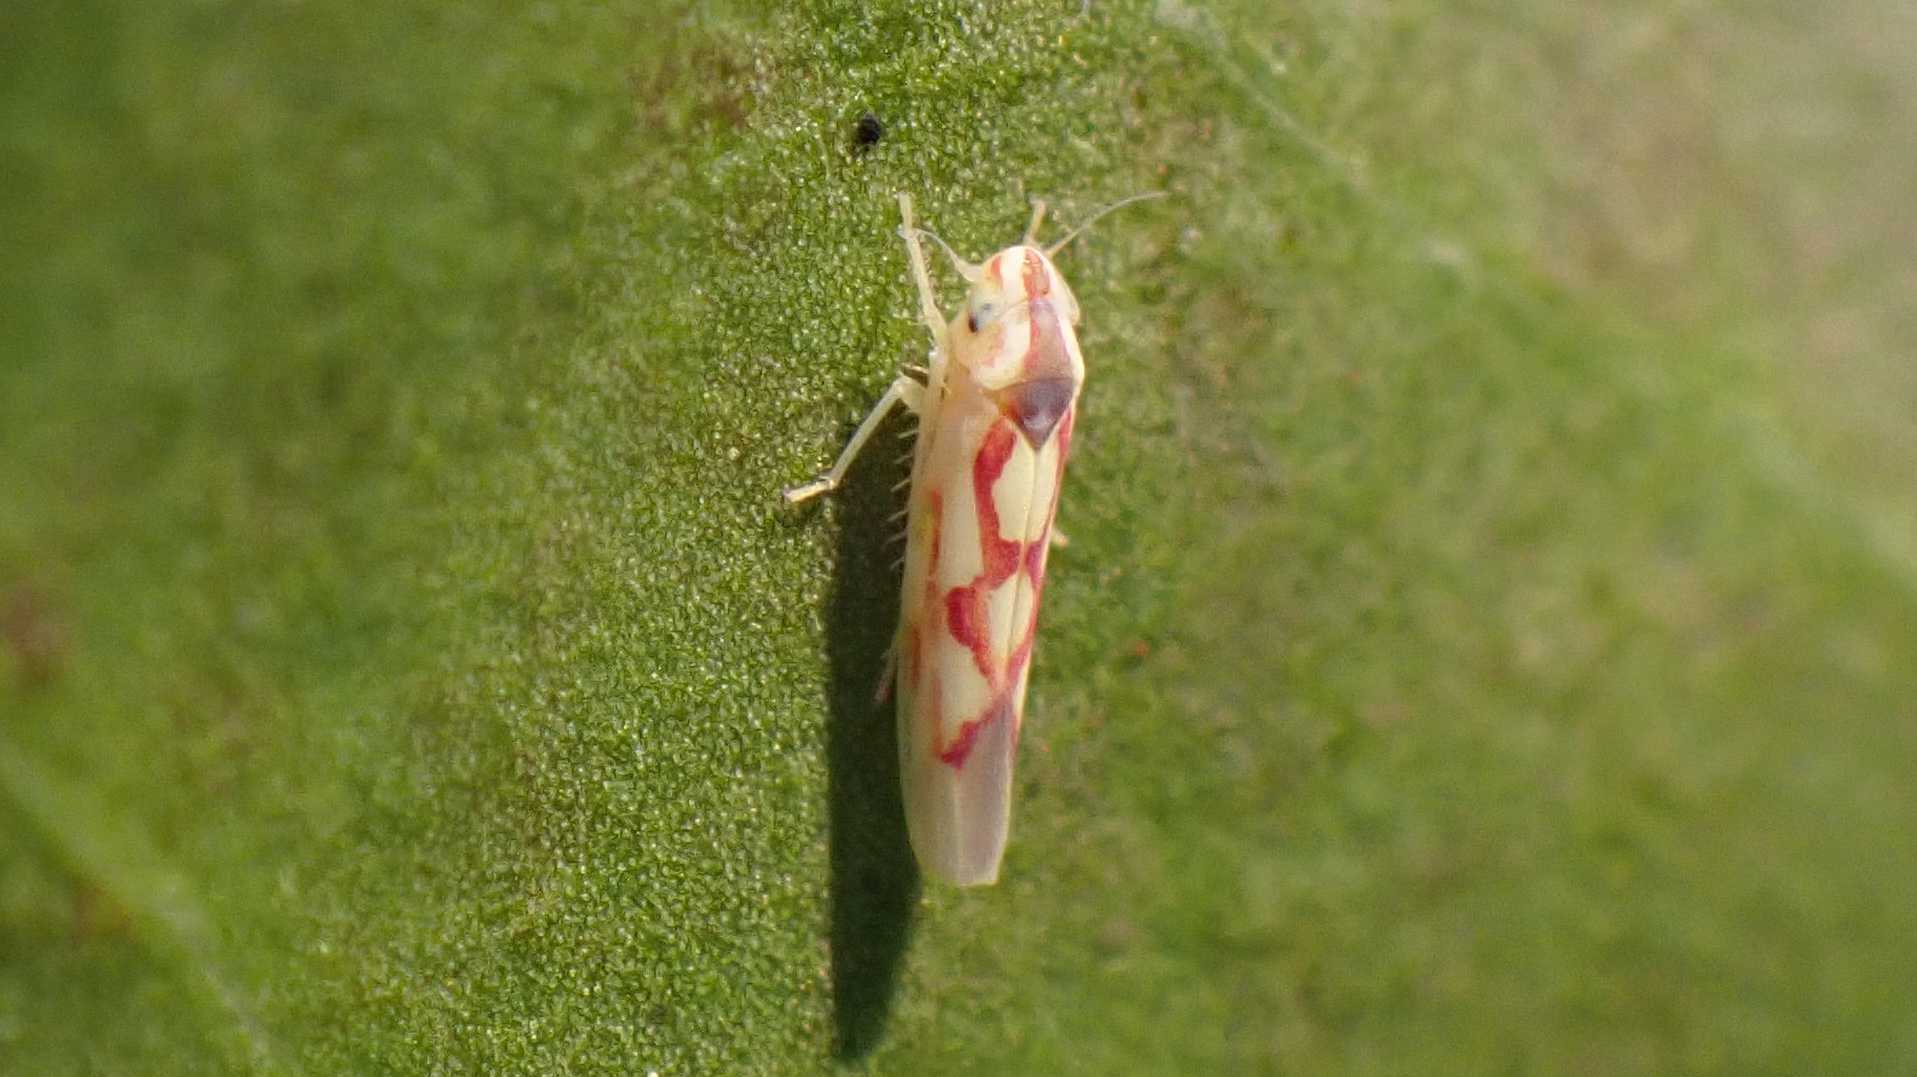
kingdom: Animalia
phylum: Arthropoda
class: Insecta
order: Hemiptera
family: Cicadellidae
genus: Zygina
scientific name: Zygina flammigera
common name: Leafhopper
